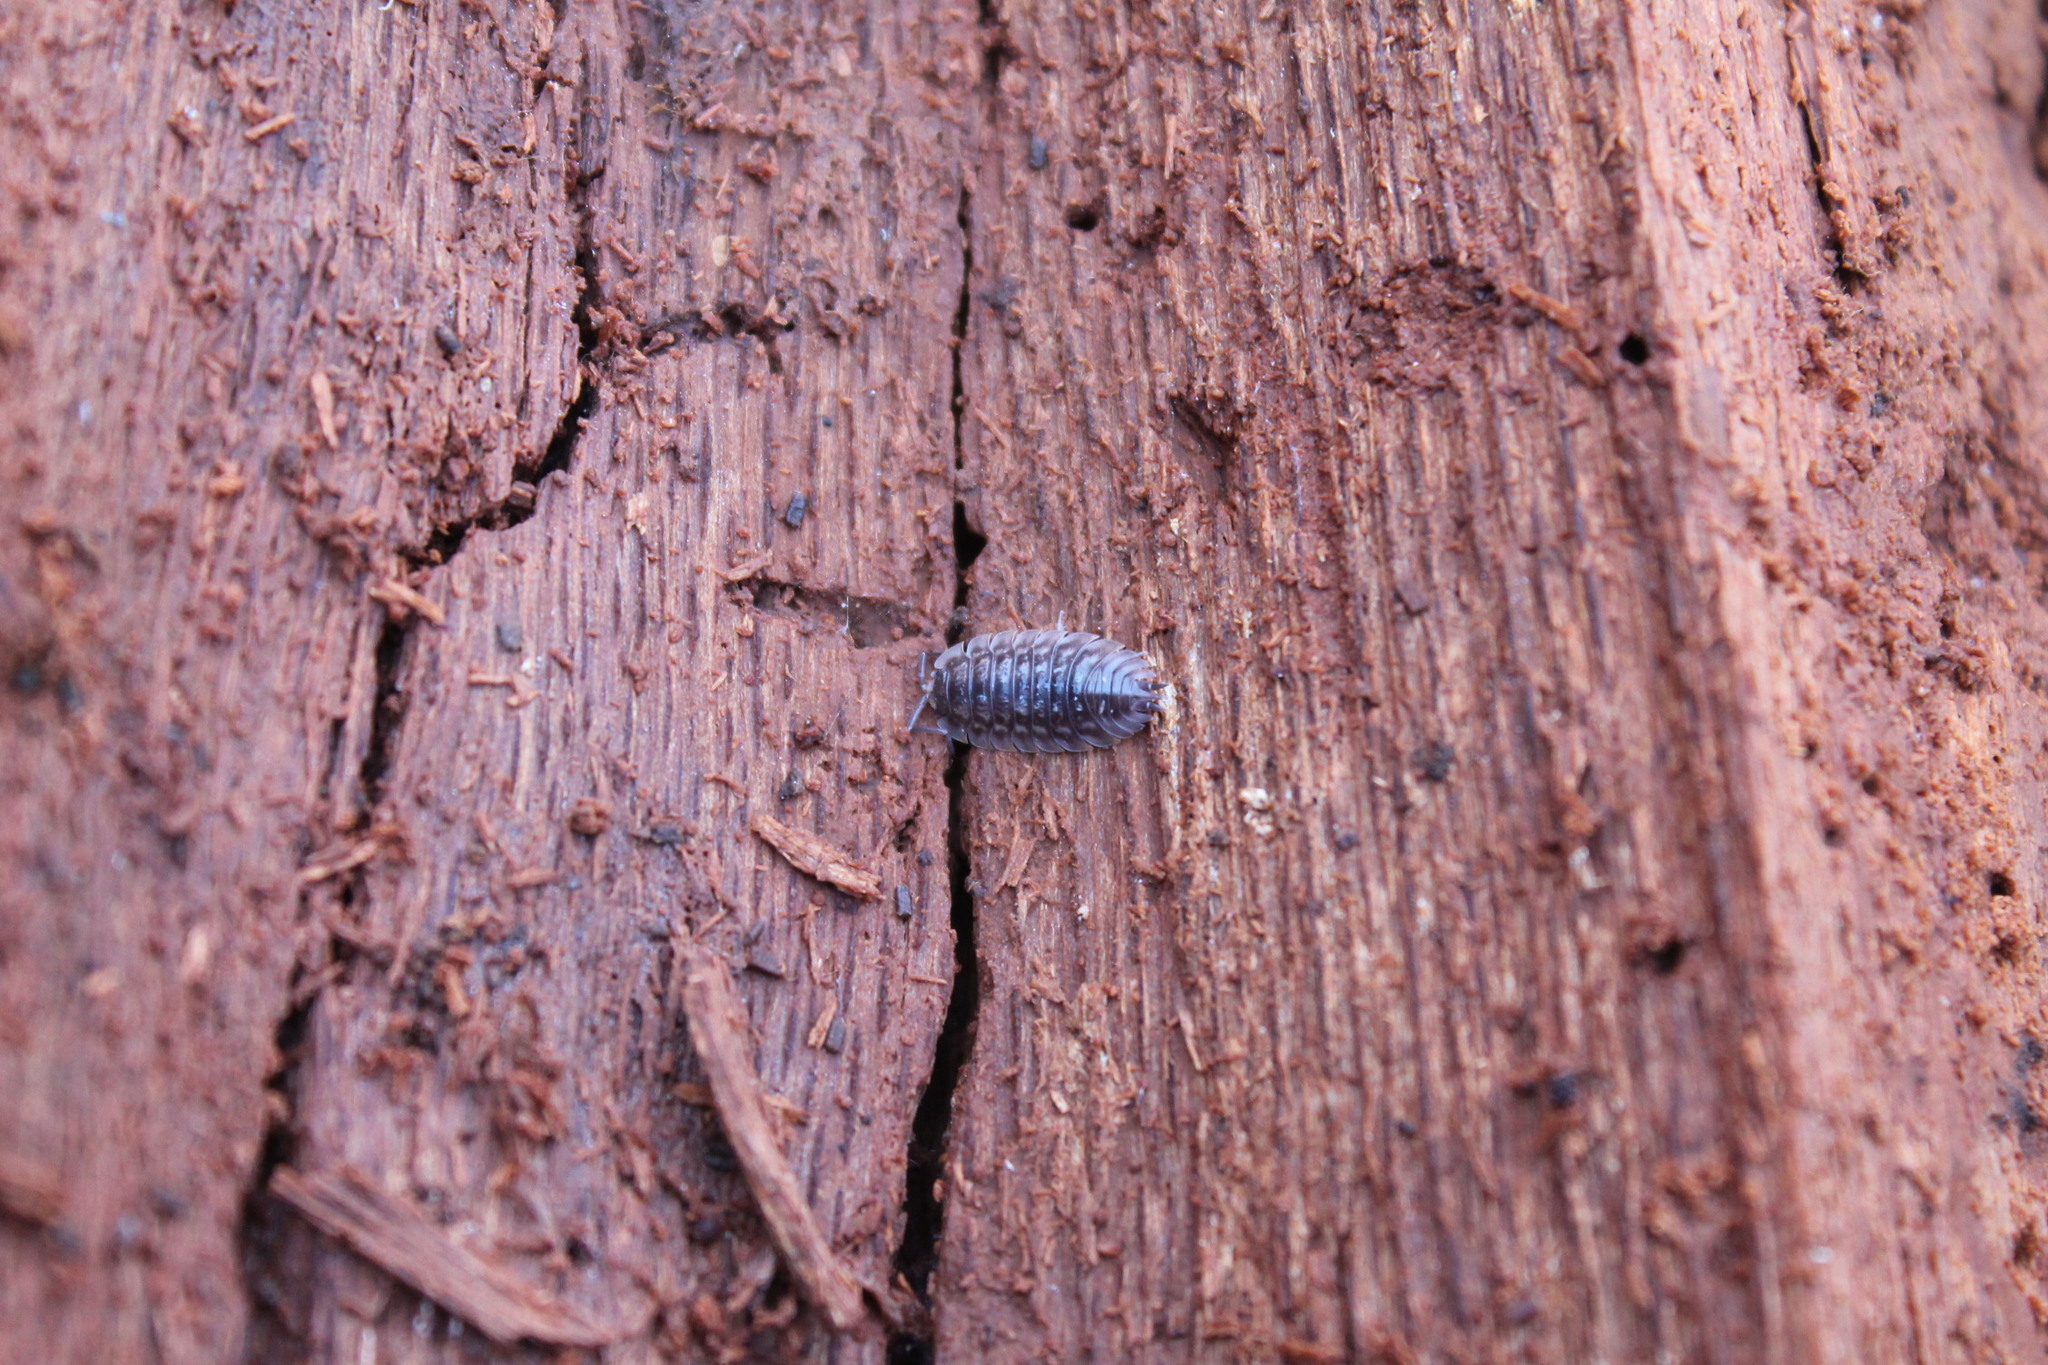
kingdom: Animalia
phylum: Arthropoda
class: Malacostraca
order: Isopoda
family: Oniscidae
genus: Oniscus
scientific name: Oniscus asellus
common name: Common shiny woodlouse
